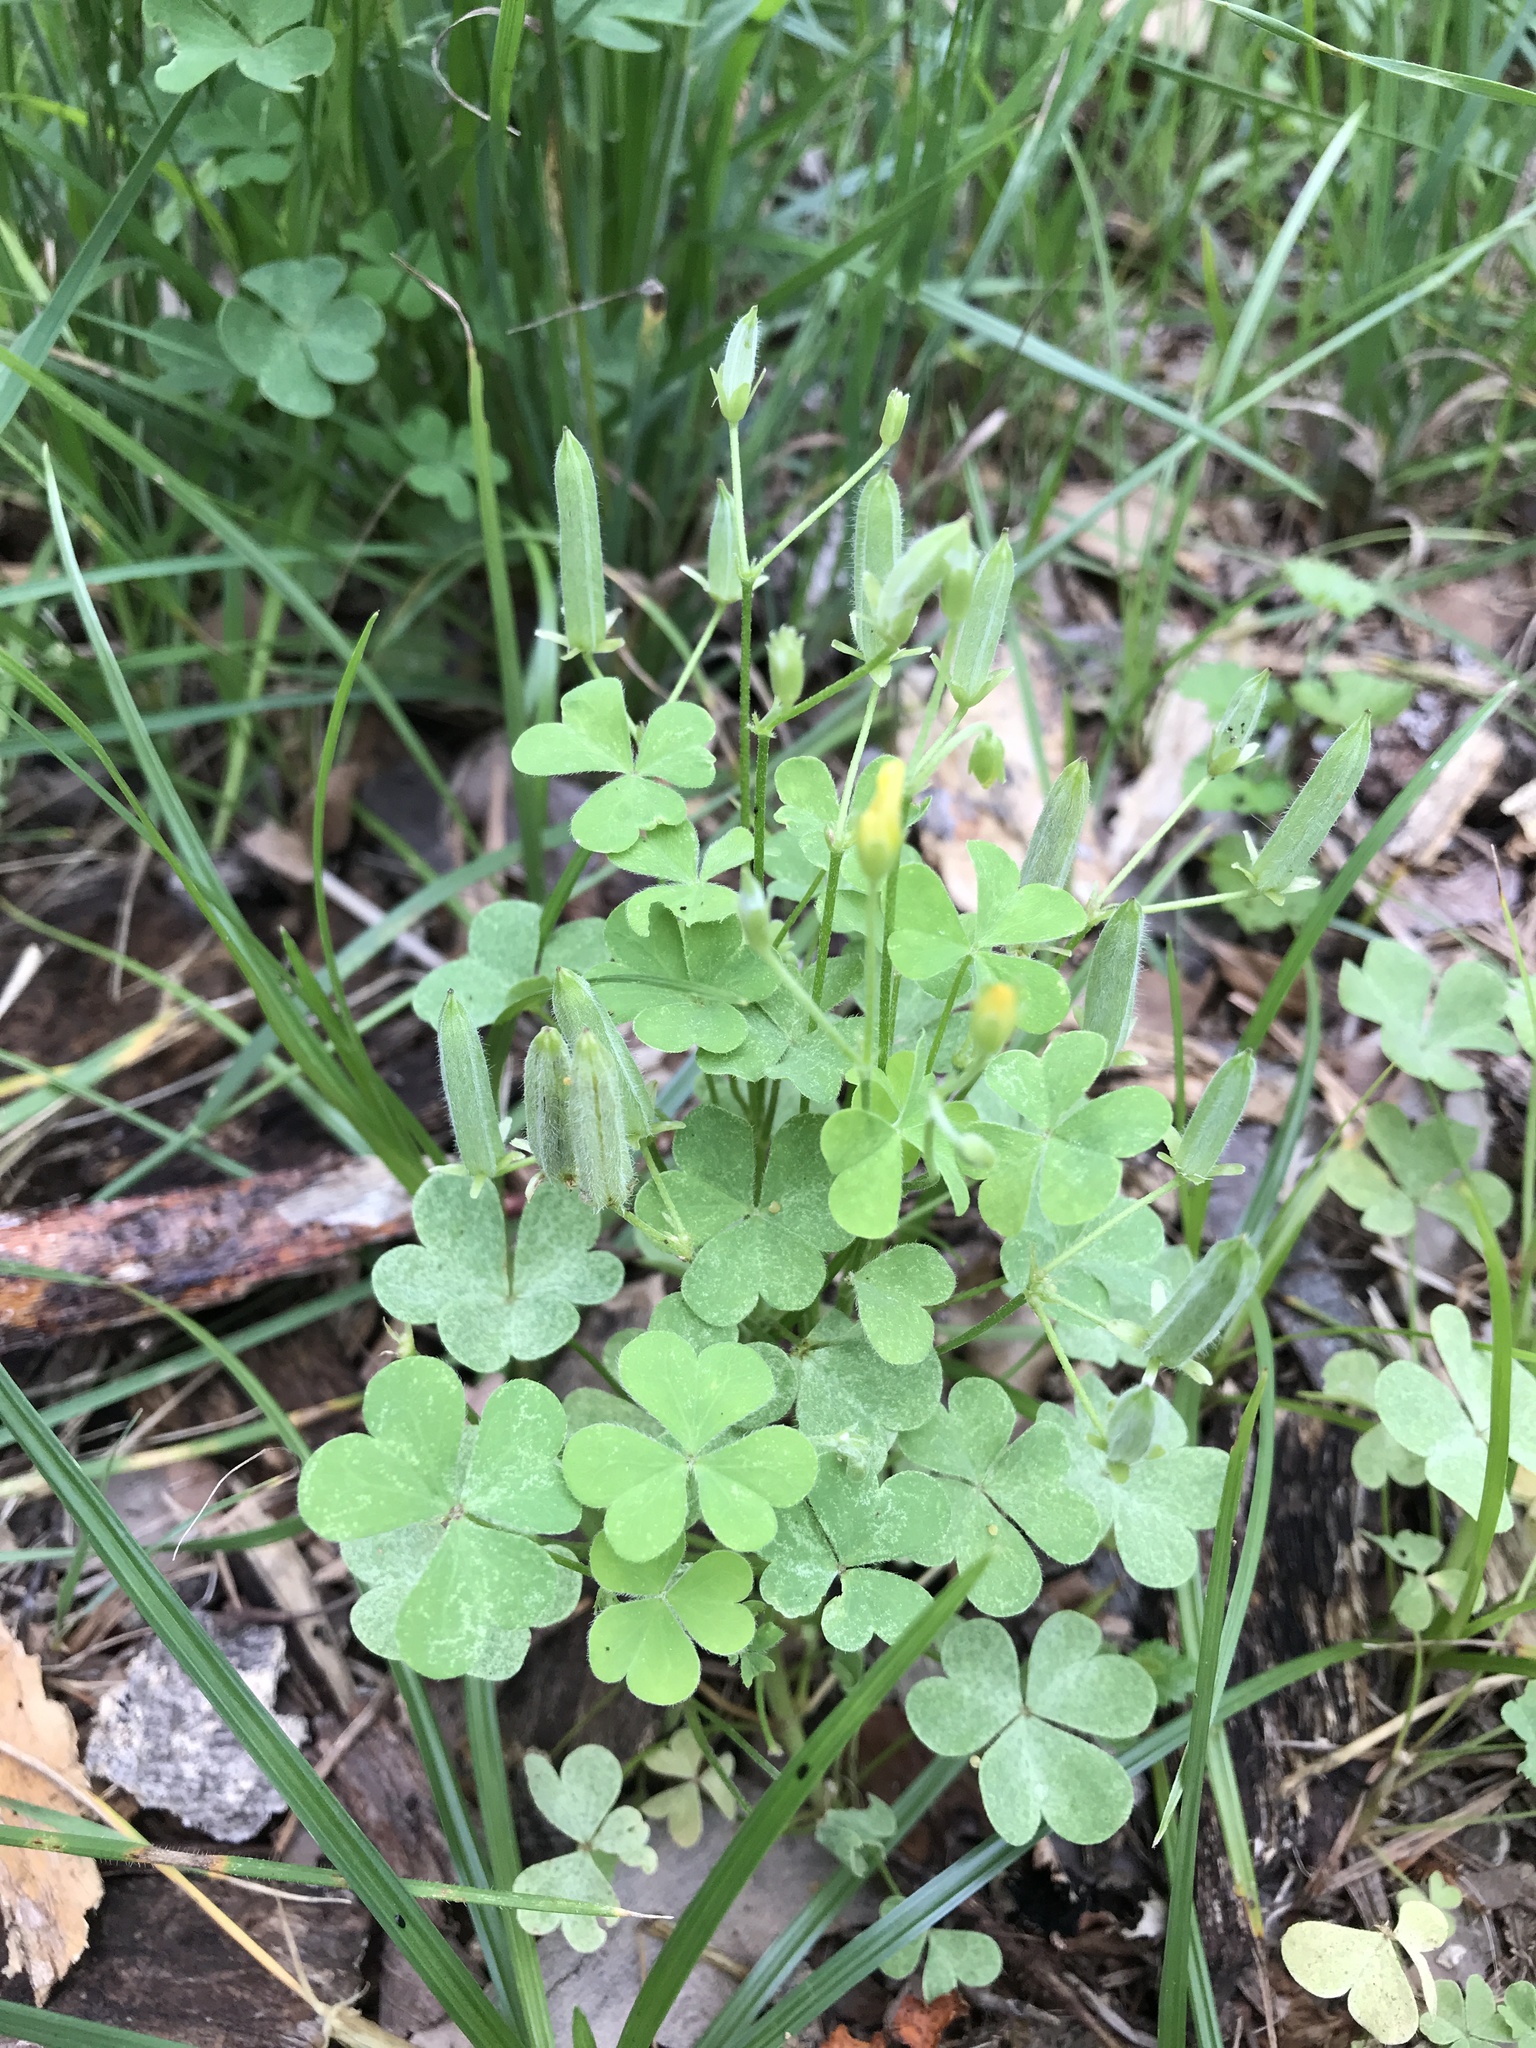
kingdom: Plantae
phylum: Tracheophyta
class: Magnoliopsida
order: Oxalidales
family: Oxalidaceae
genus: Oxalis
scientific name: Oxalis dillenii
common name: Sussex yellow-sorrel
